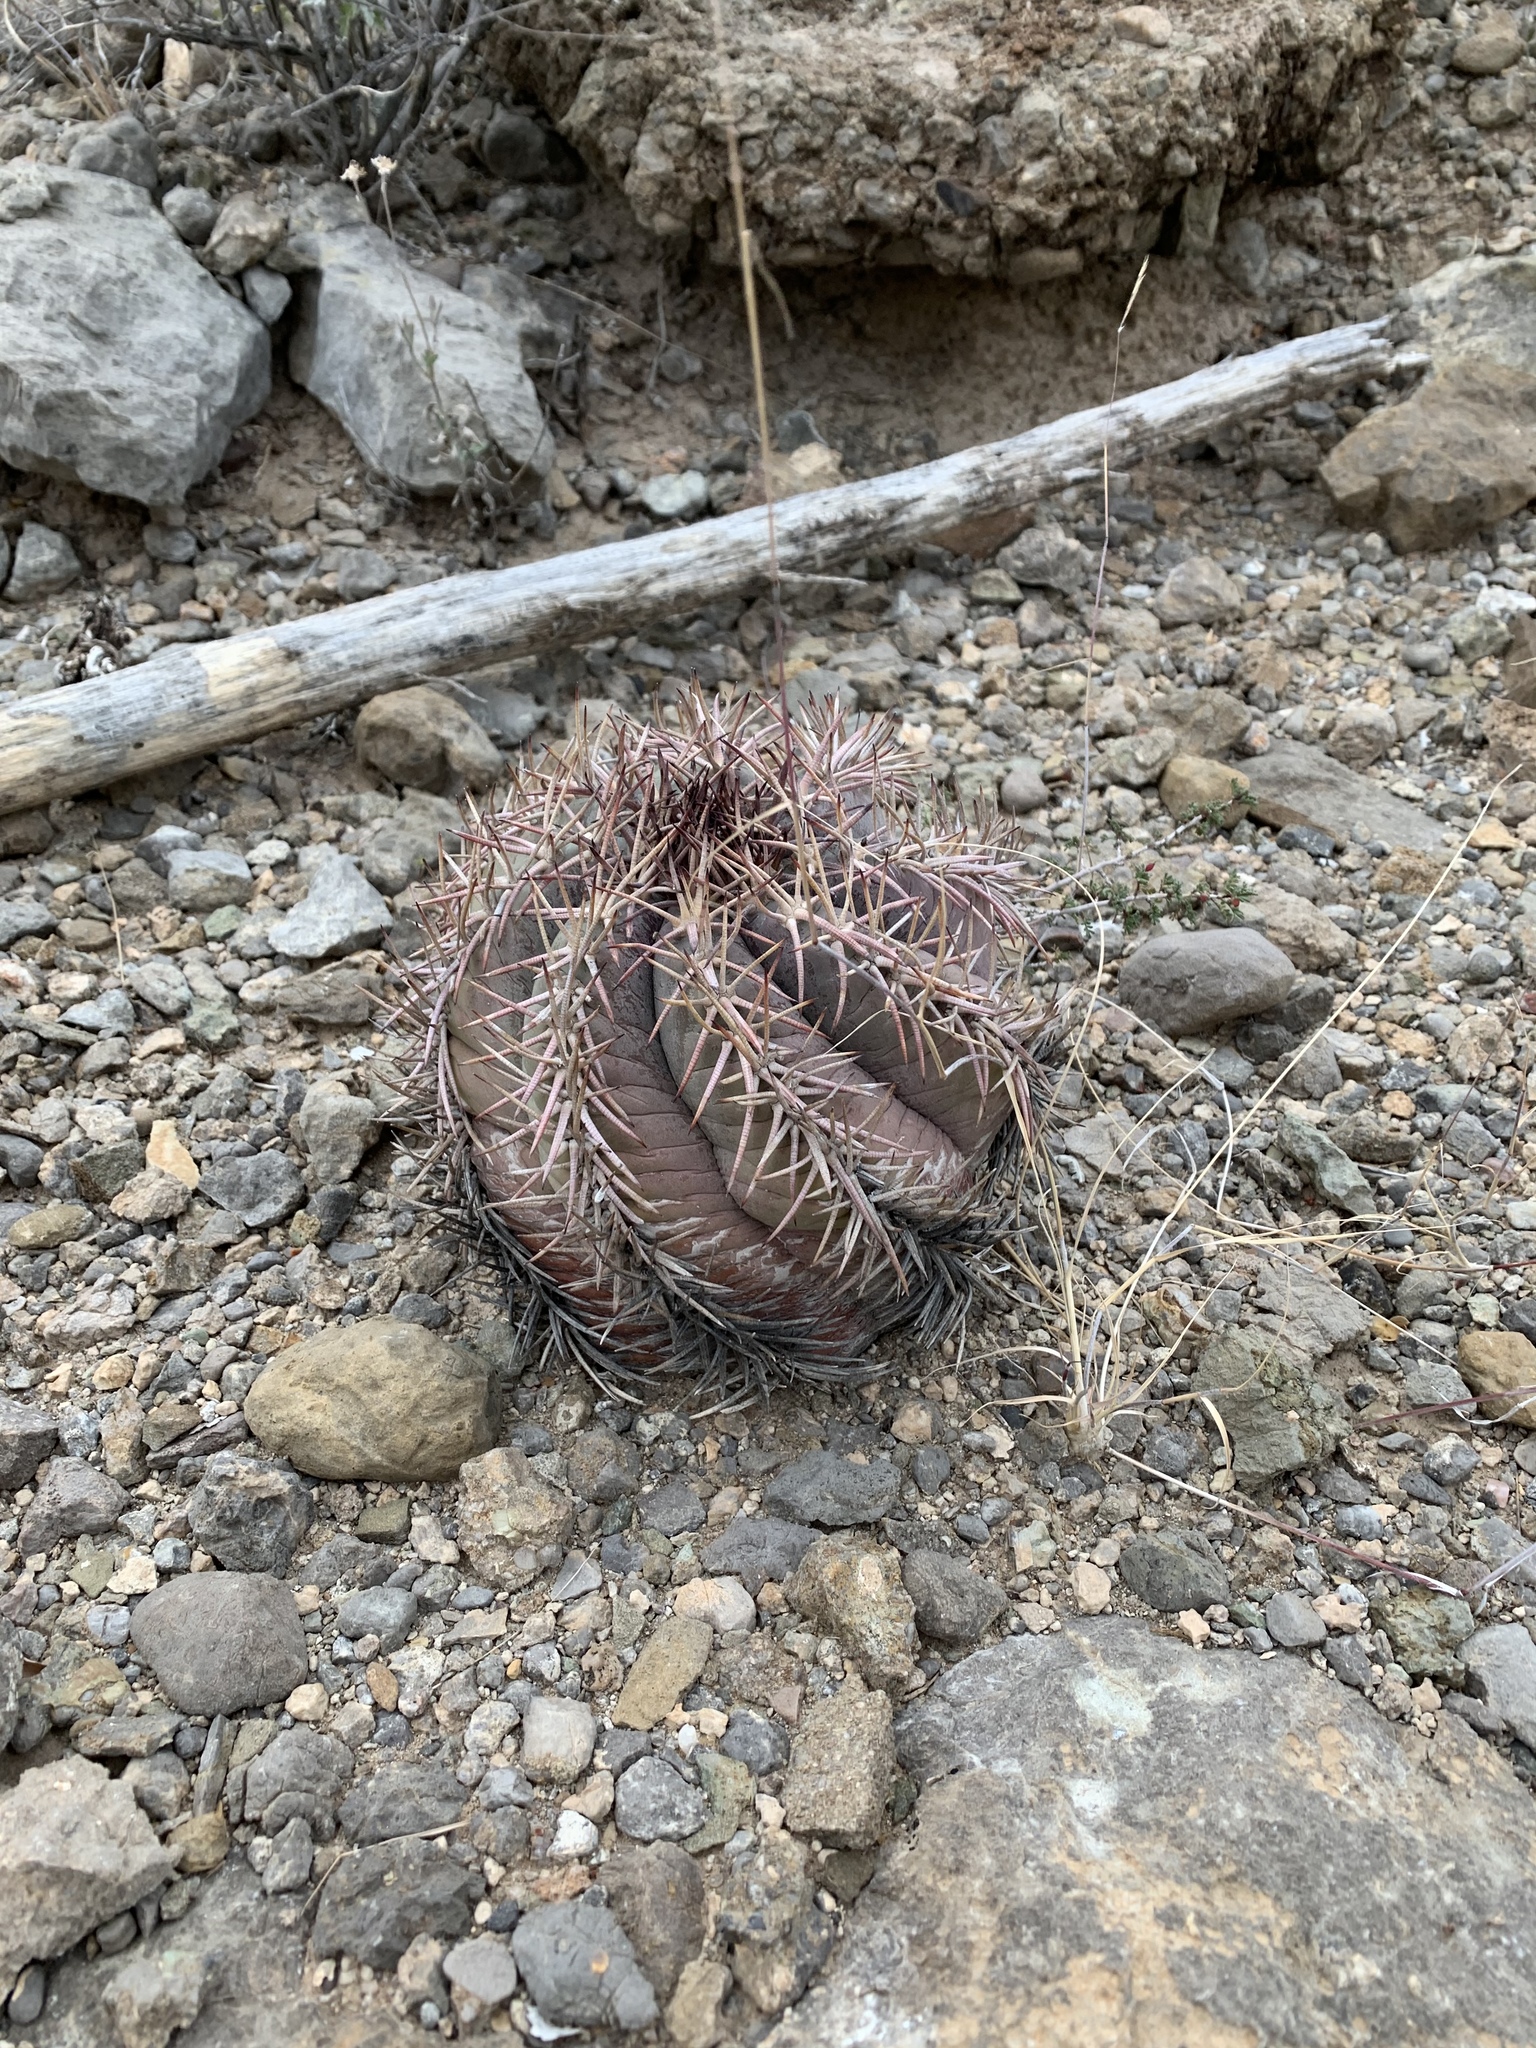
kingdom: Plantae
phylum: Tracheophyta
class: Magnoliopsida
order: Caryophyllales
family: Cactaceae
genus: Echinocactus
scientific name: Echinocactus horizonthalonius
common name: Devilshead
